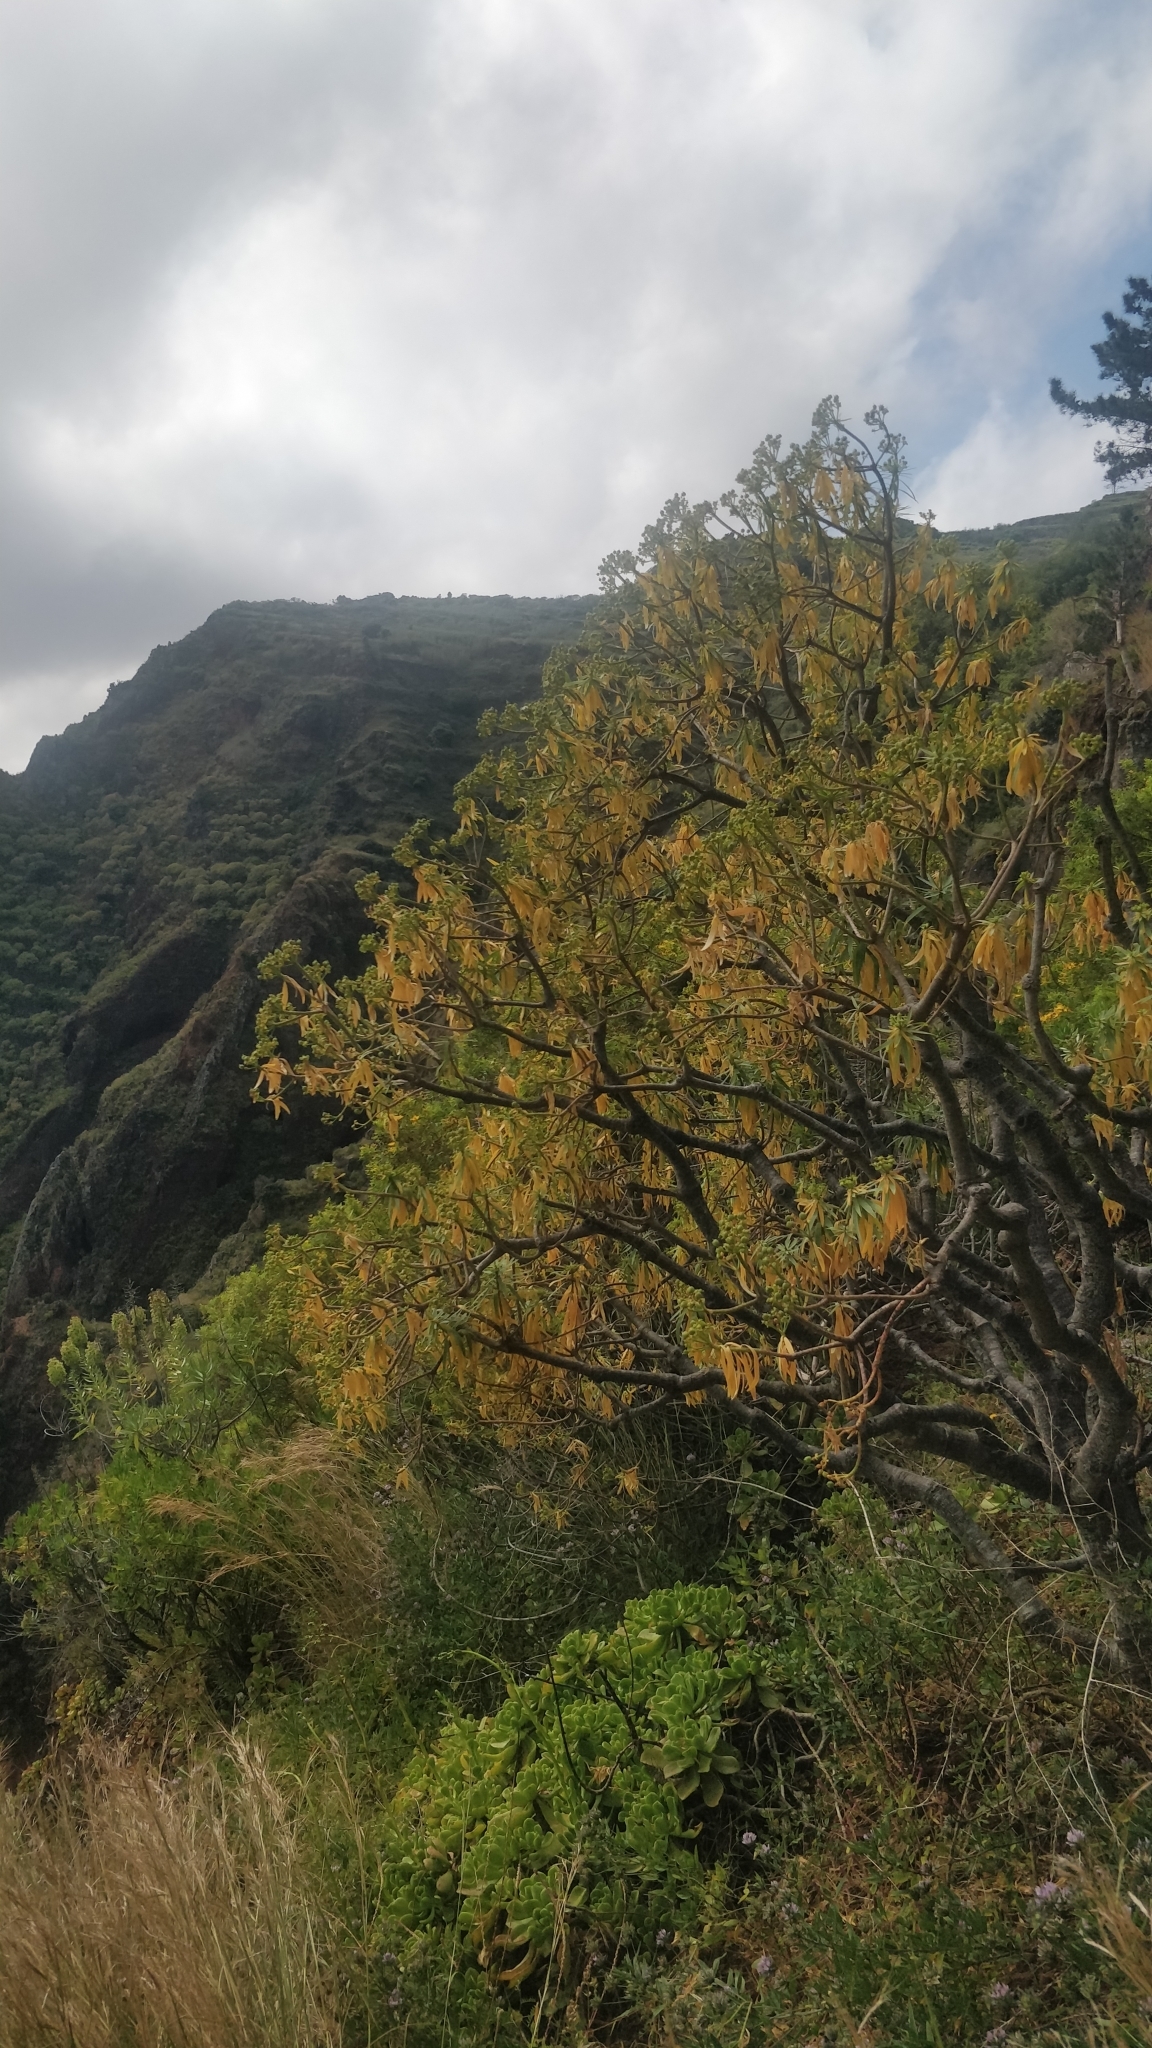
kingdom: Plantae
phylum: Tracheophyta
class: Magnoliopsida
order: Malpighiales
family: Euphorbiaceae
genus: Euphorbia
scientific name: Euphorbia piscatoria
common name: Fish-stunning spurge
